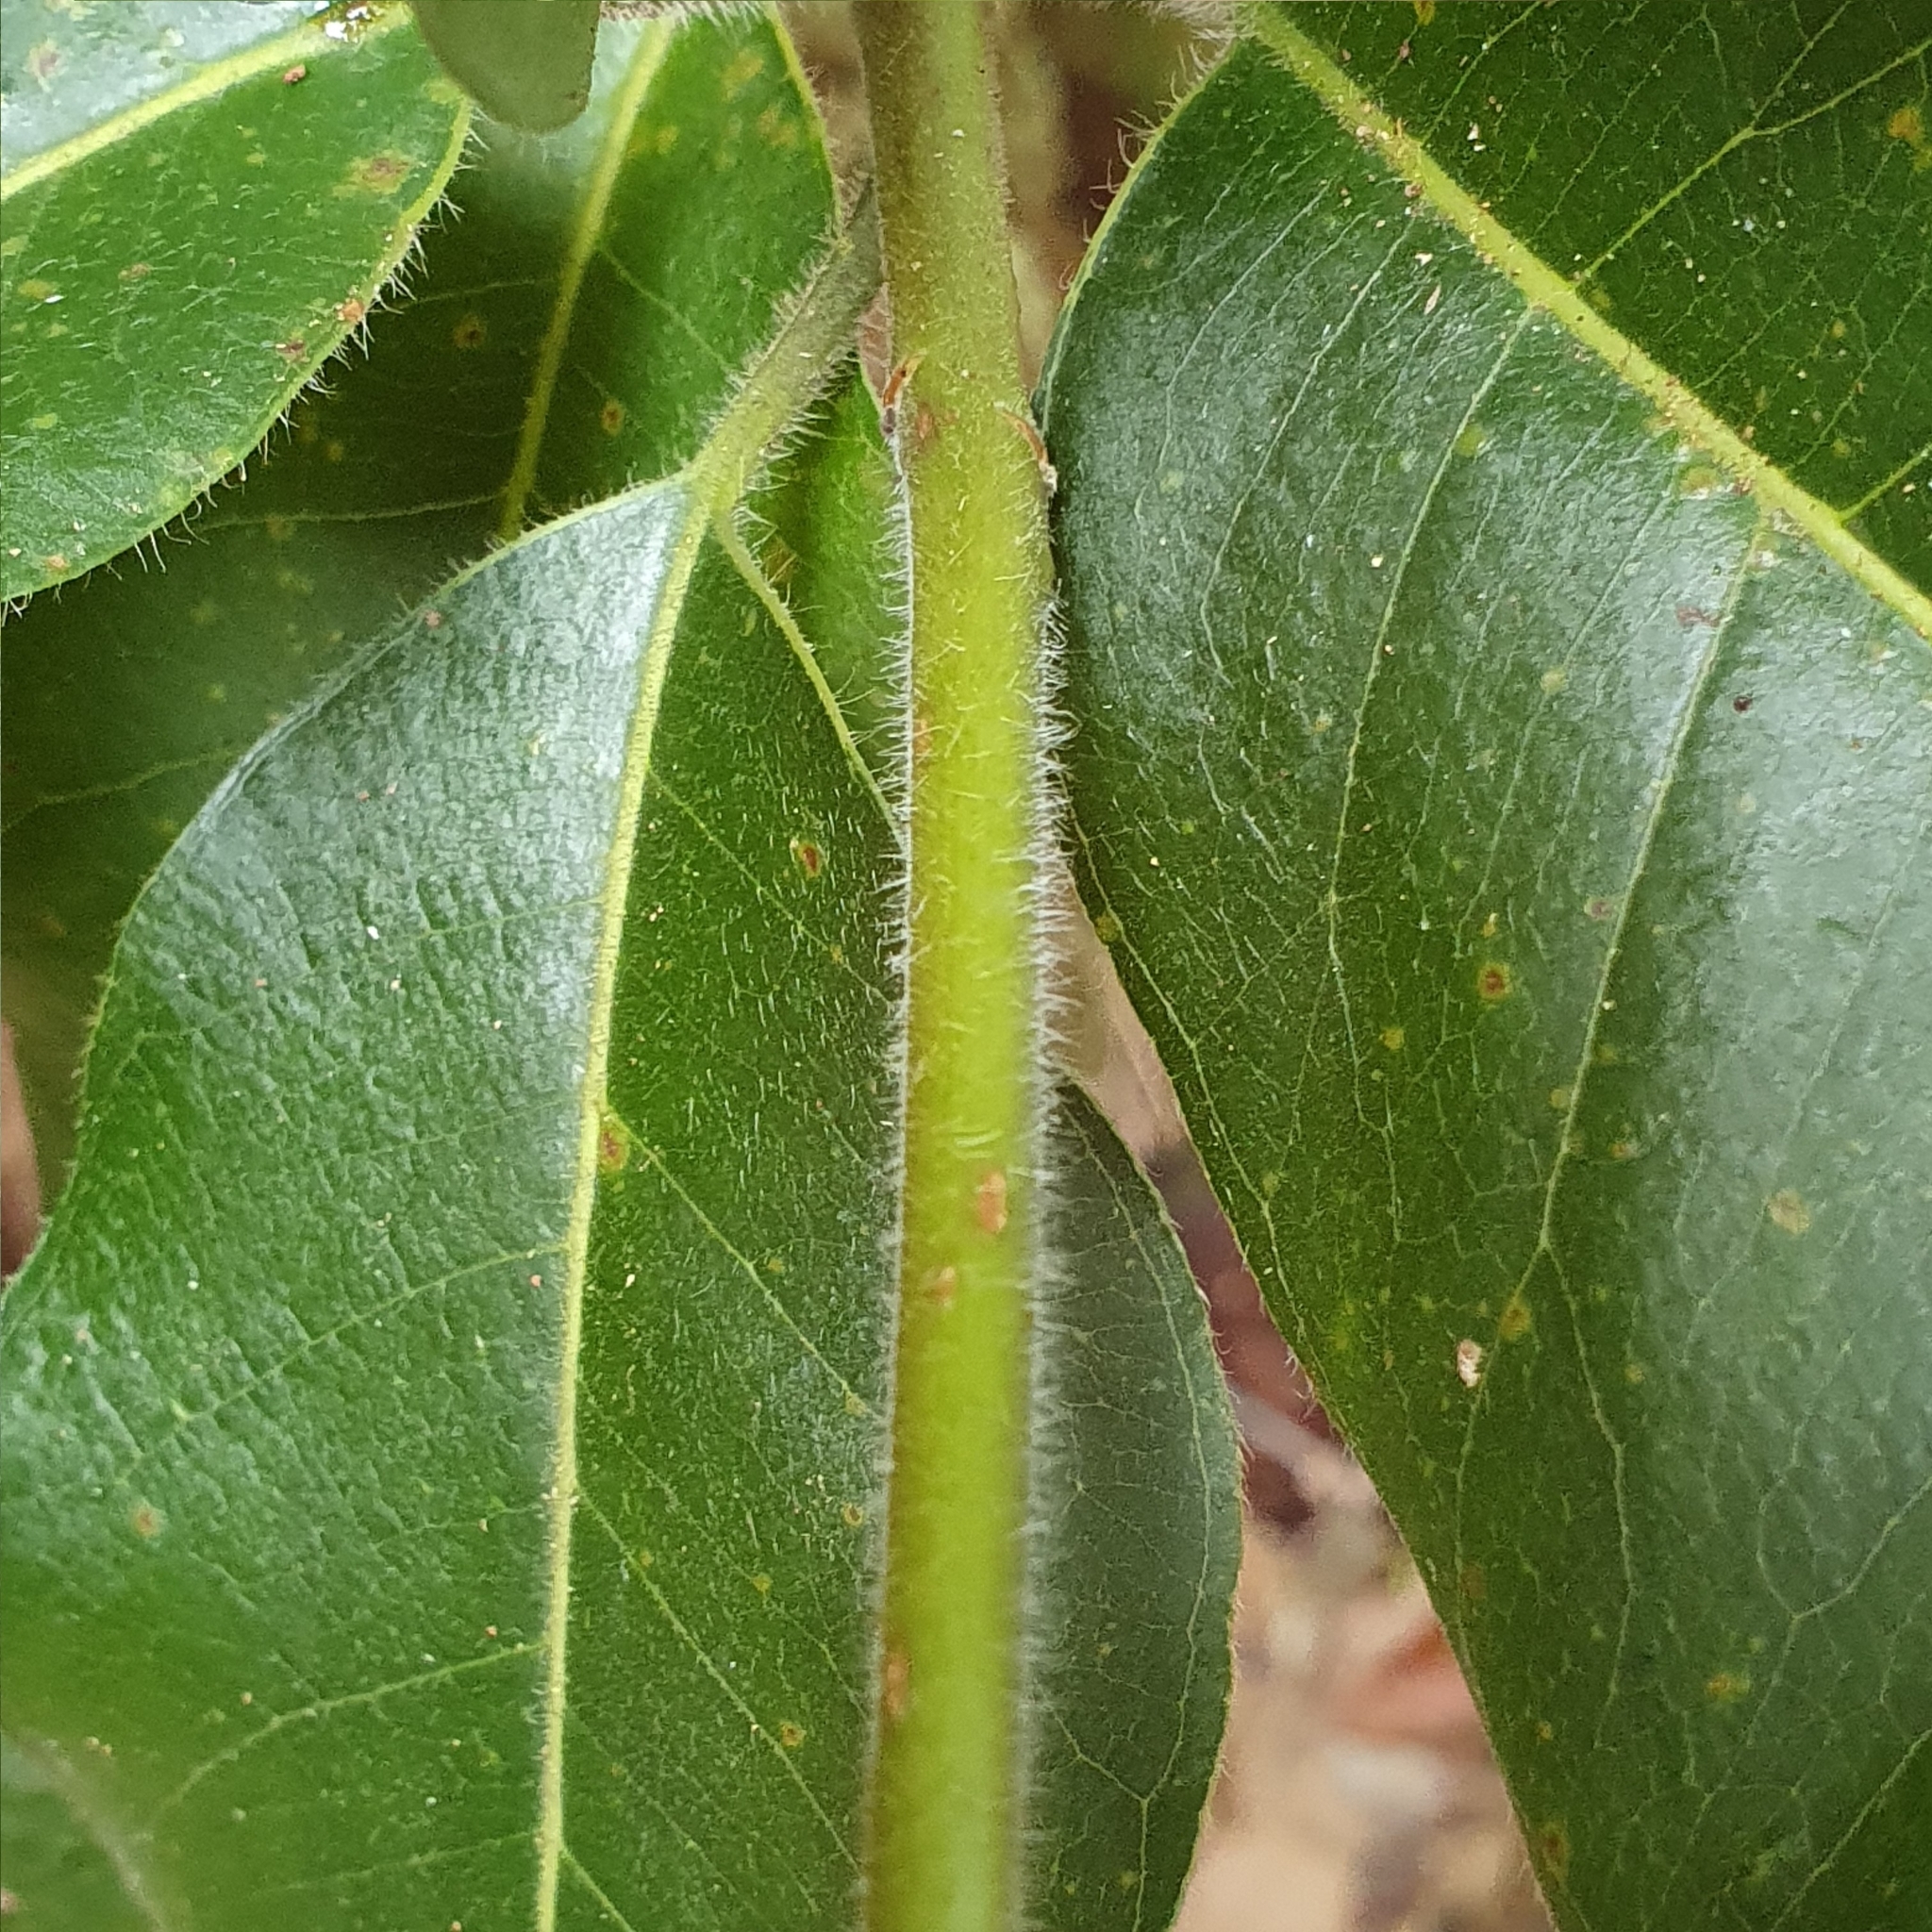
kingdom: Plantae
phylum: Tracheophyta
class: Magnoliopsida
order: Myrtales
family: Myrtaceae
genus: Syncarpia
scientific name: Syncarpia hillii
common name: Fraser island turpentine
